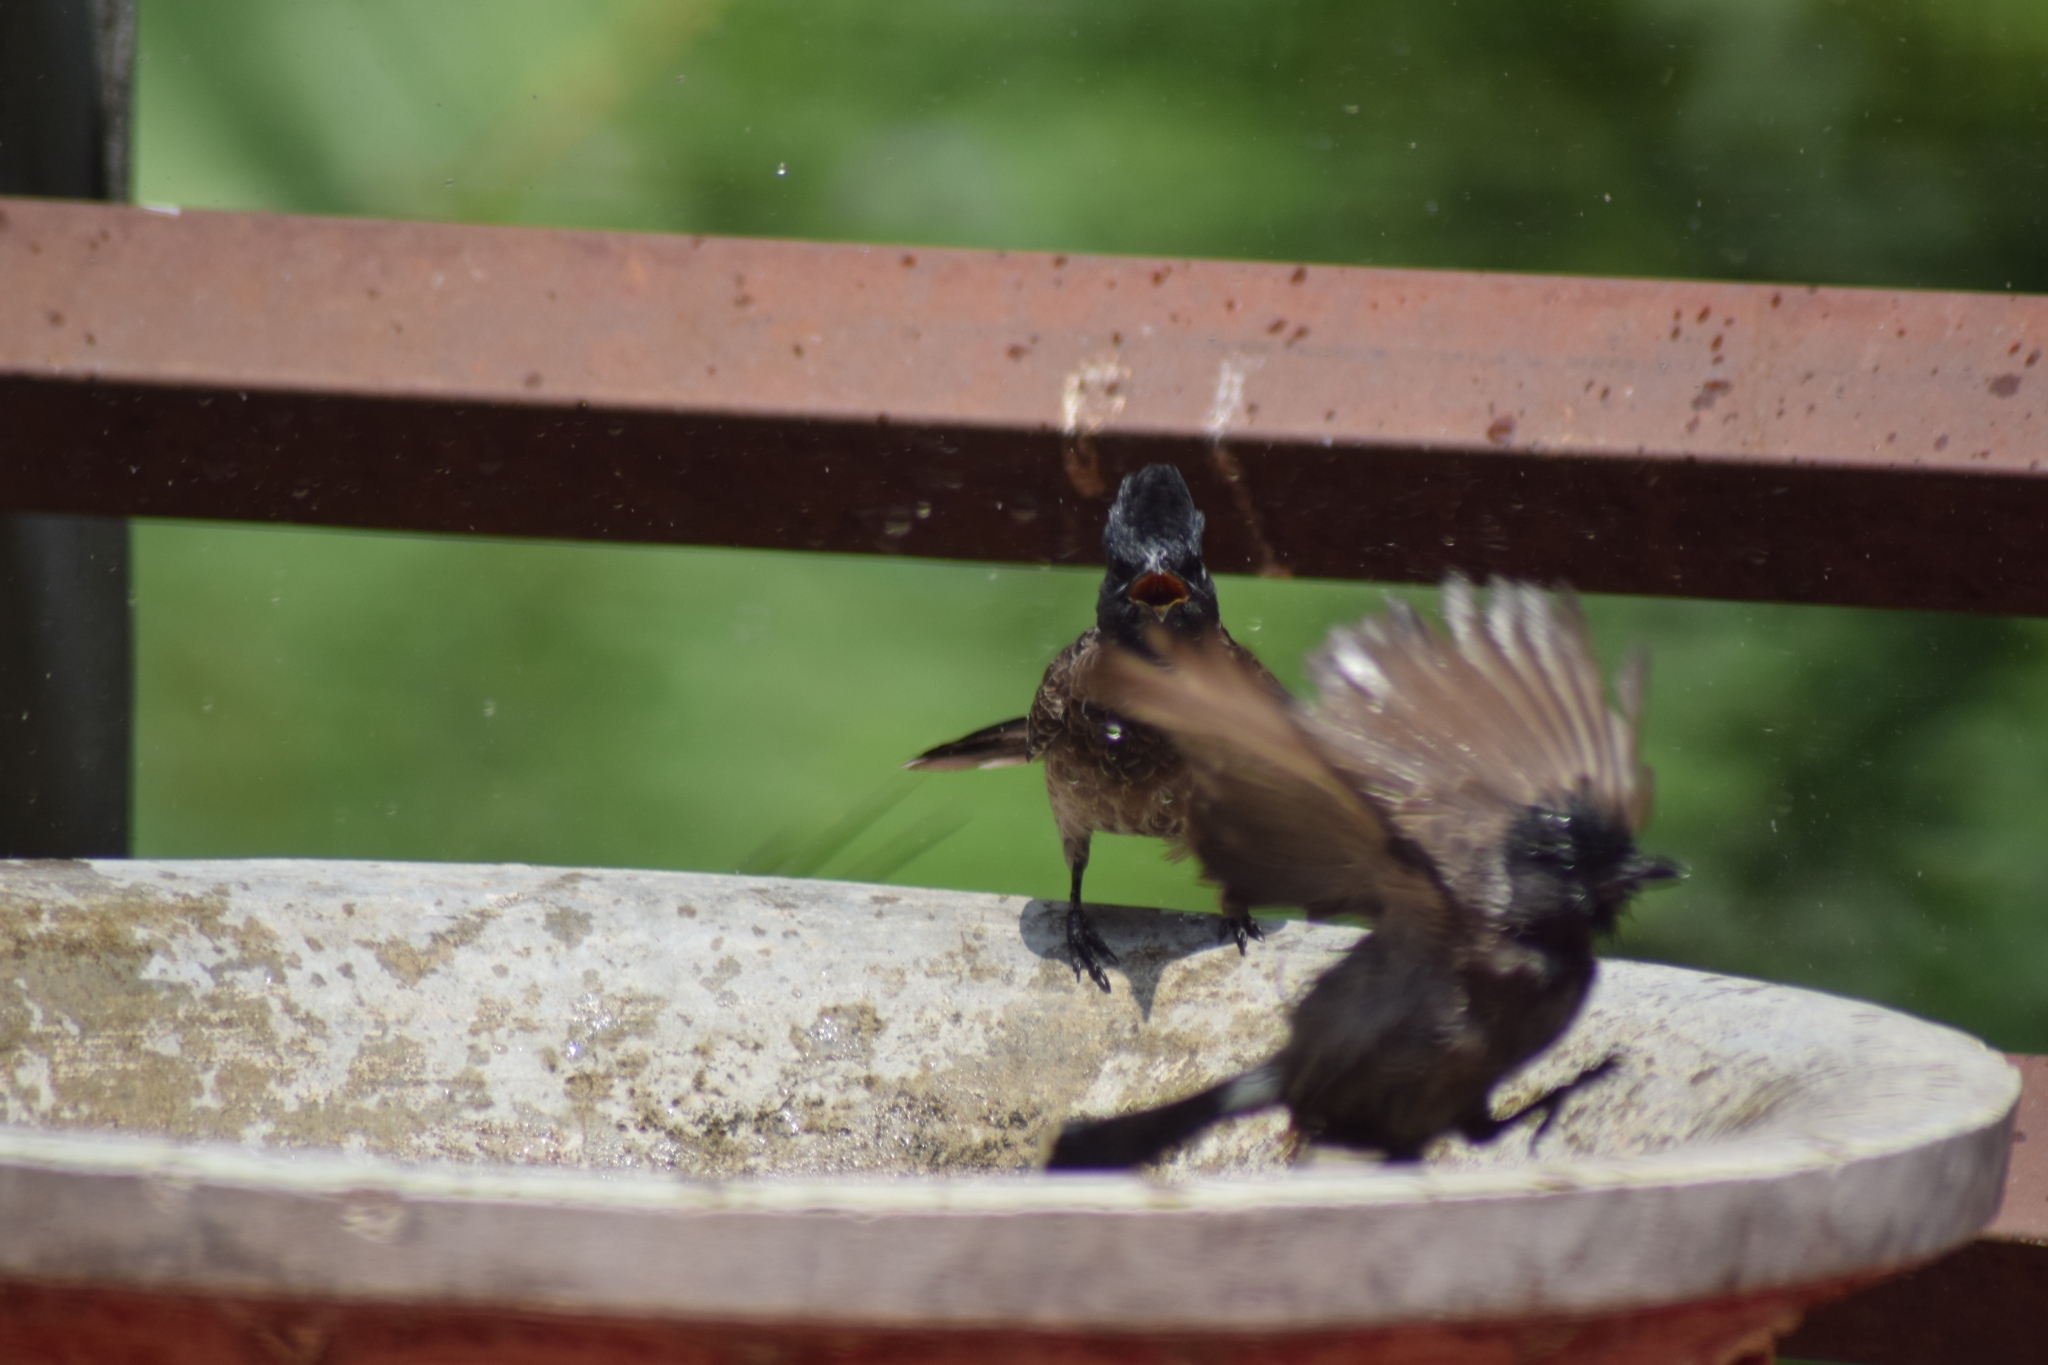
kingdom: Animalia
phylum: Chordata
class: Aves
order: Passeriformes
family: Pycnonotidae
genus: Pycnonotus
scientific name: Pycnonotus cafer
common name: Red-vented bulbul
